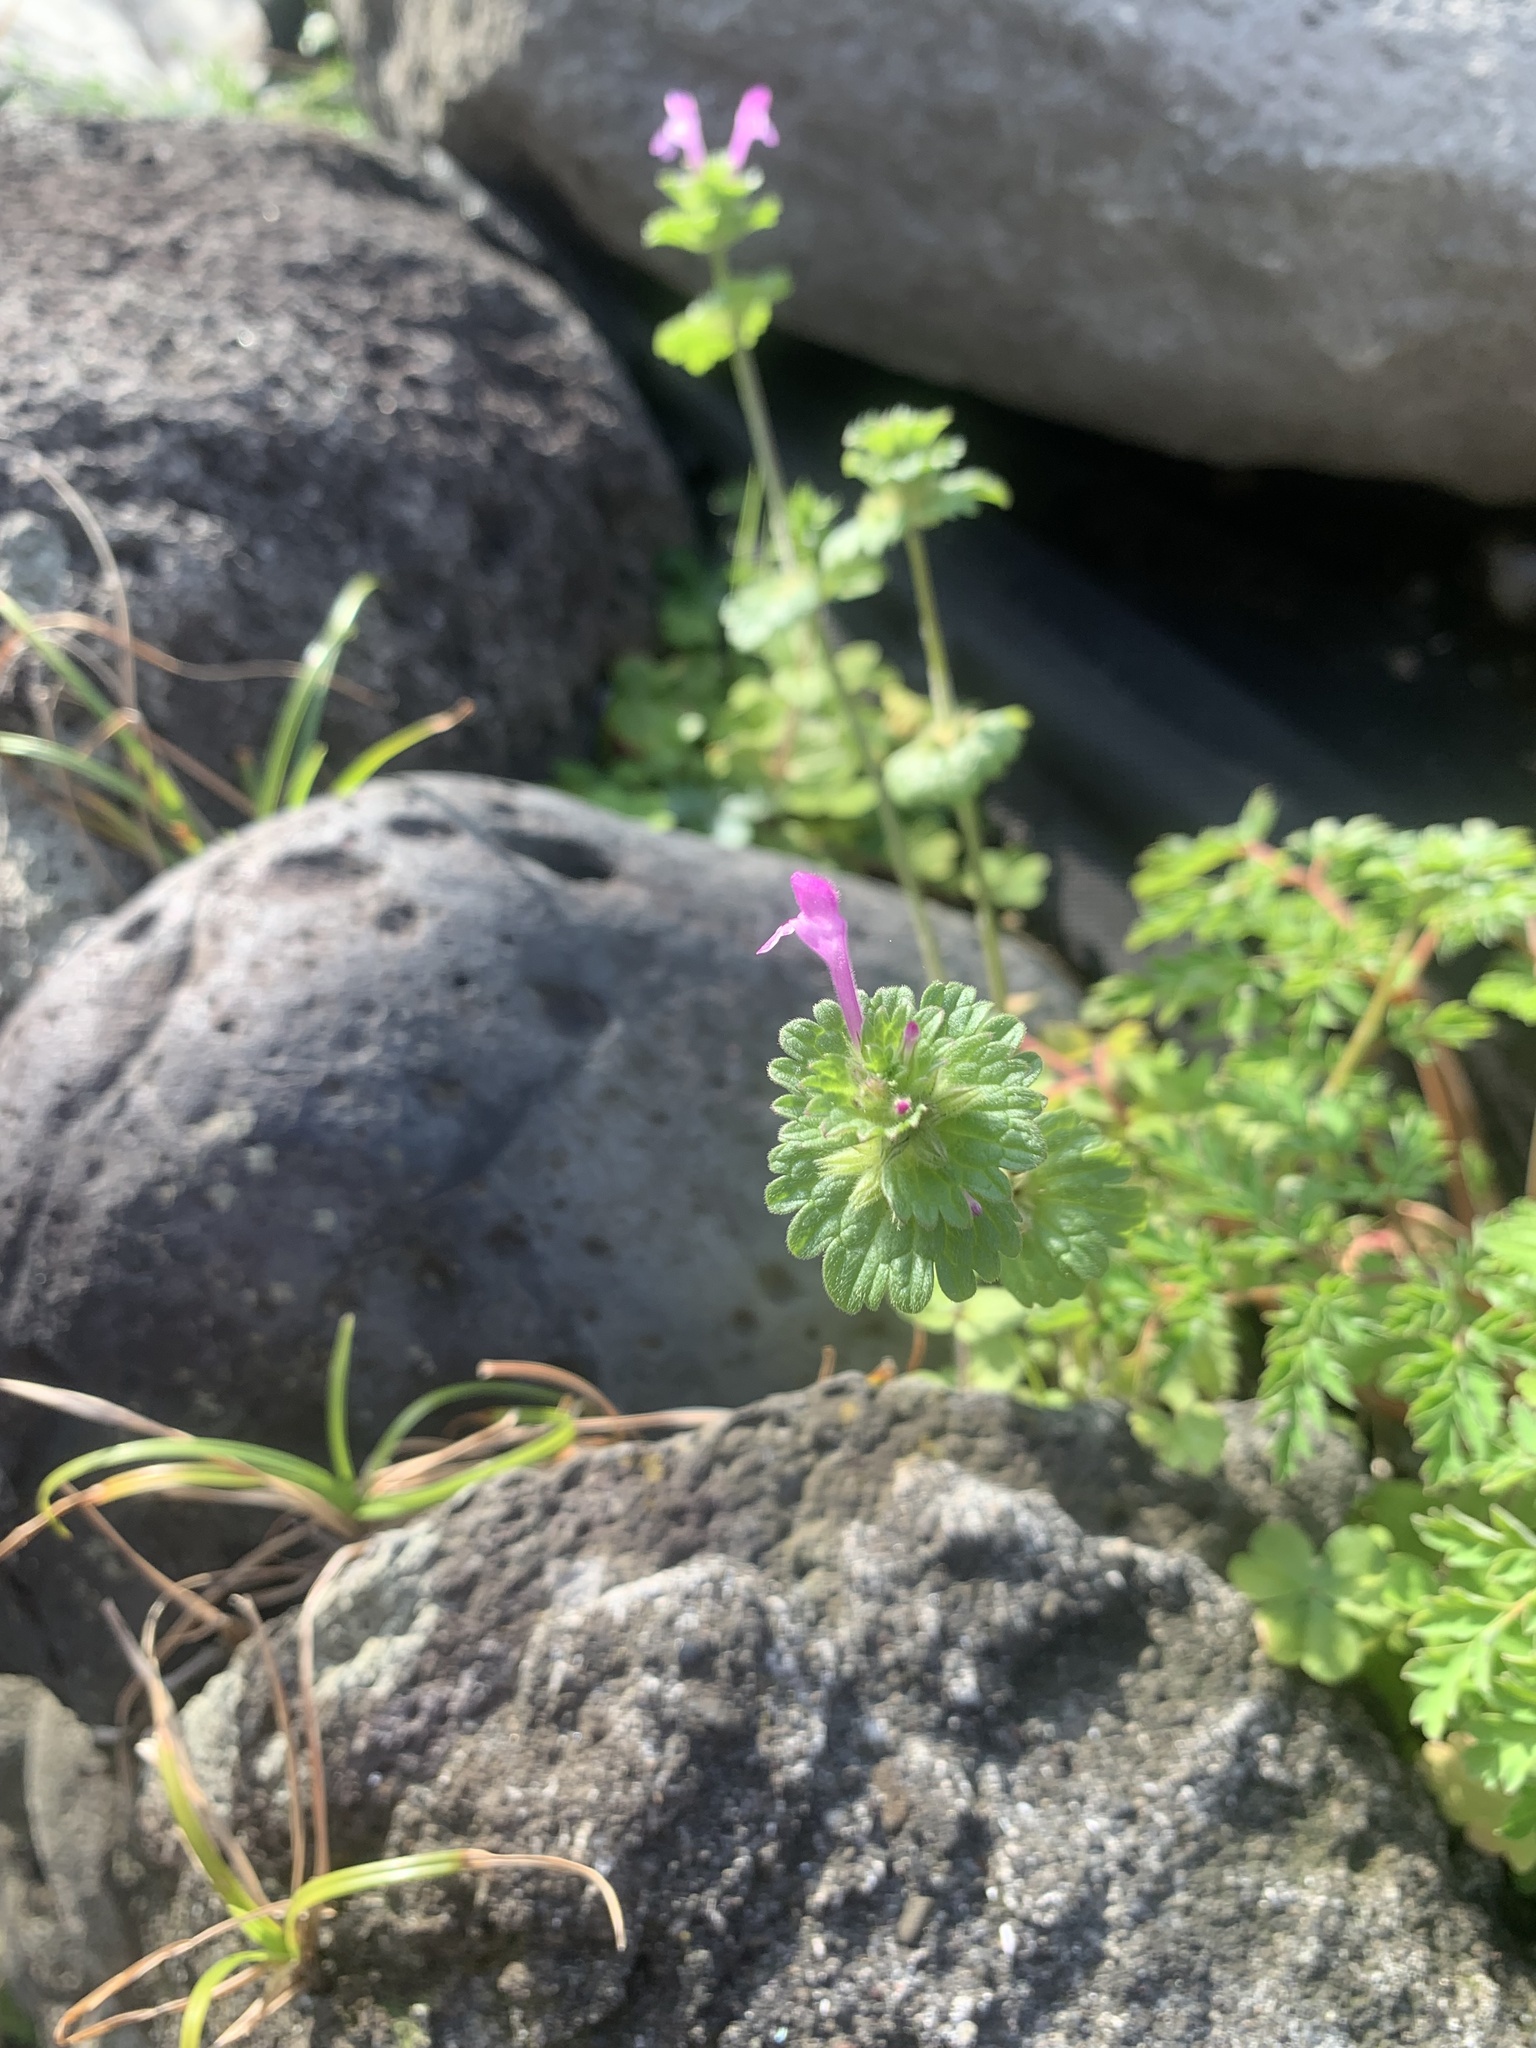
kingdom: Plantae
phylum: Tracheophyta
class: Magnoliopsida
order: Lamiales
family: Lamiaceae
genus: Lamium
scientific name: Lamium amplexicaule
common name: Henbit dead-nettle
